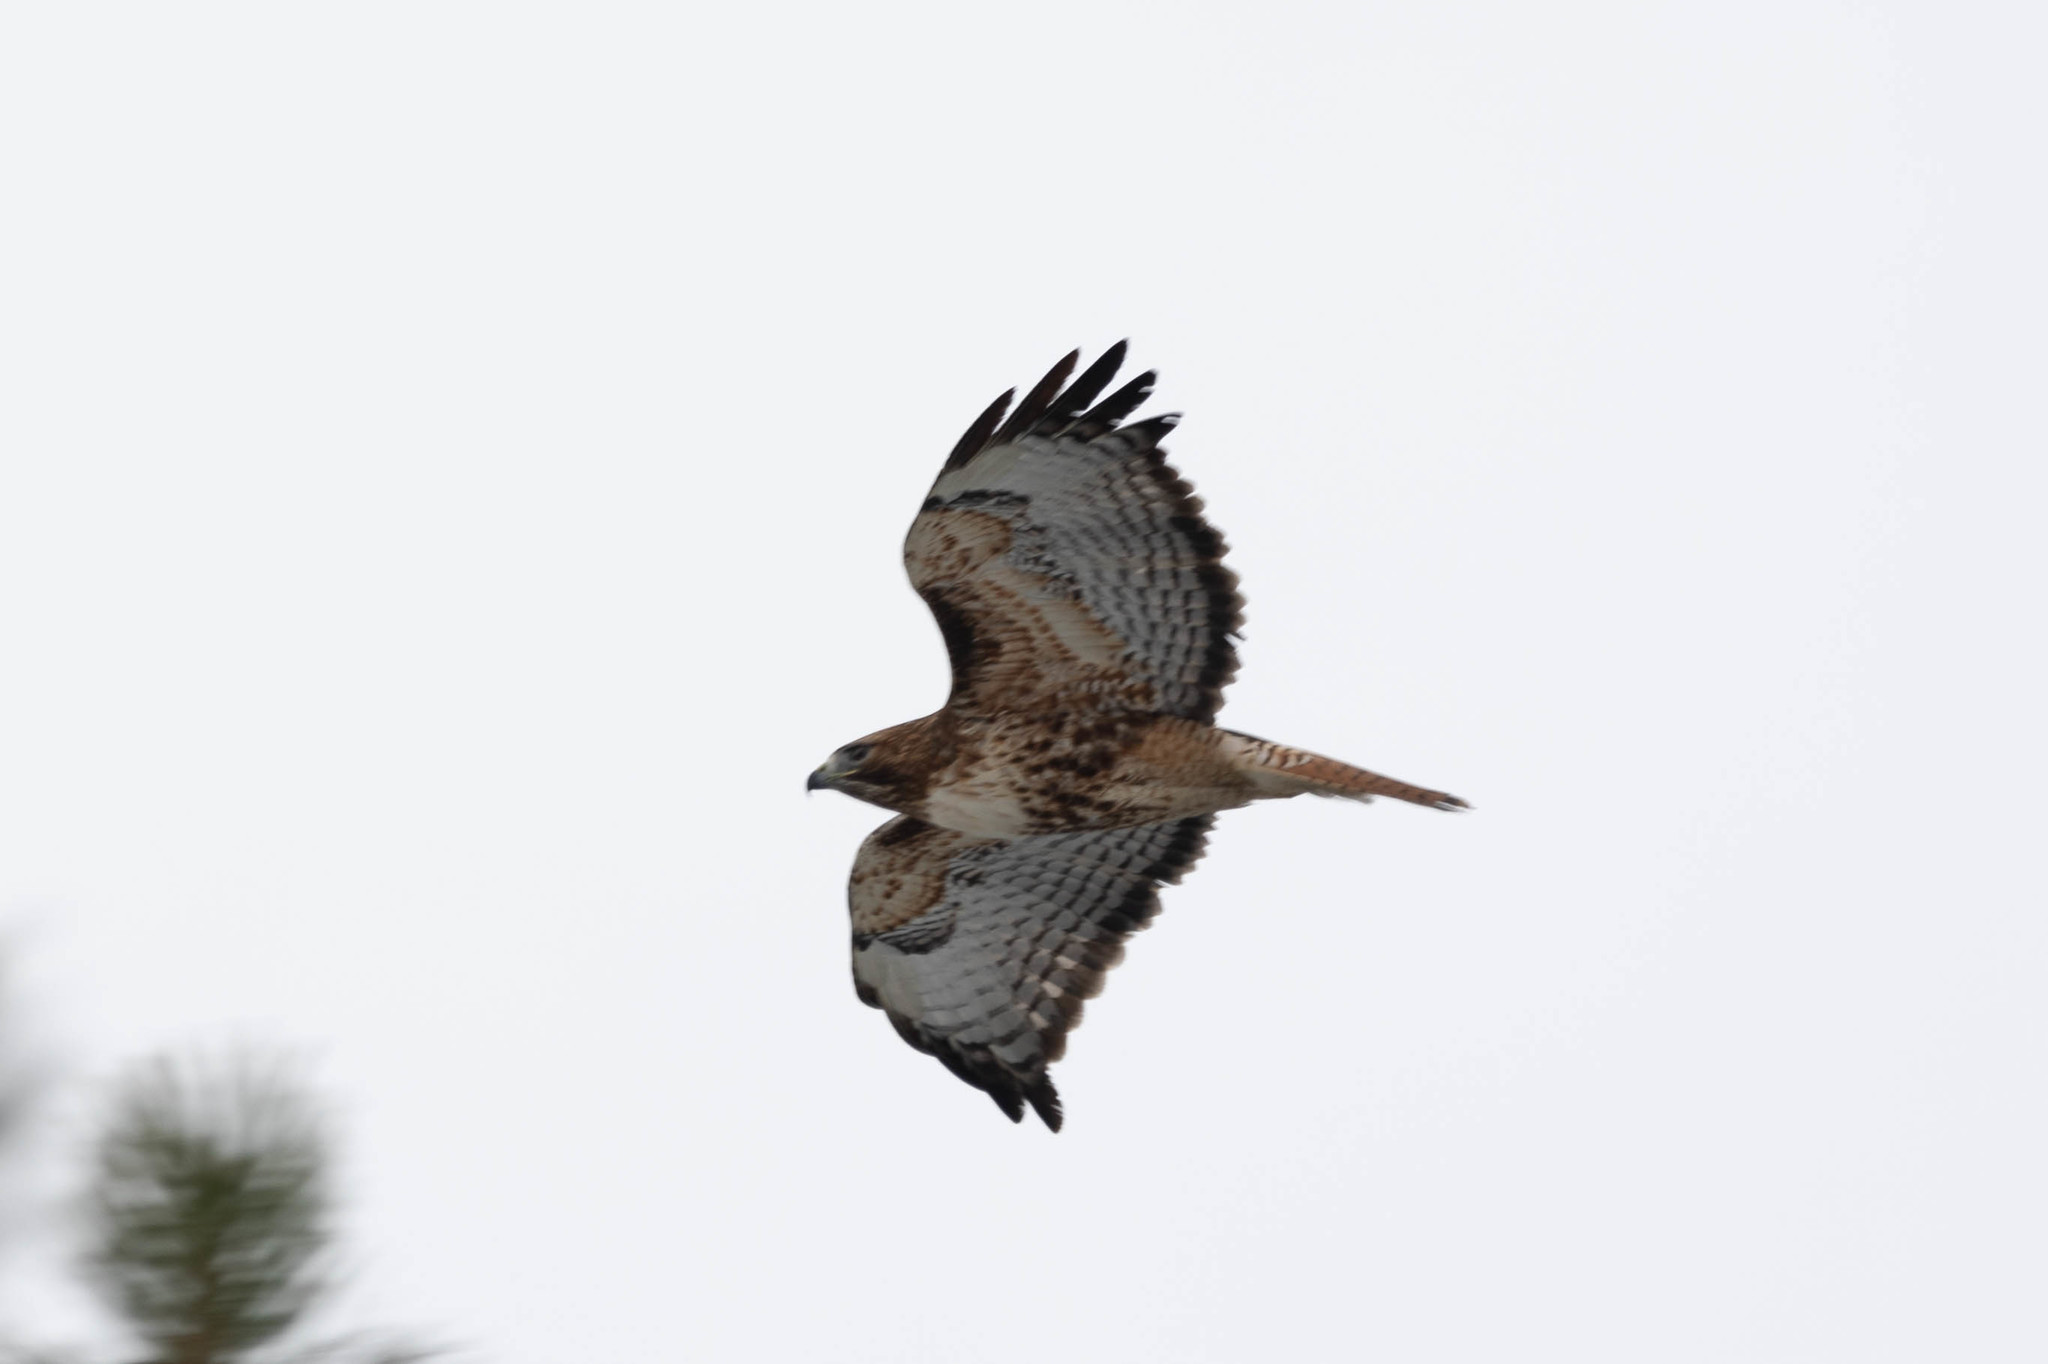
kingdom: Animalia
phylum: Chordata
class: Aves
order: Accipitriformes
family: Accipitridae
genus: Buteo
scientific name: Buteo jamaicensis
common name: Red-tailed hawk
